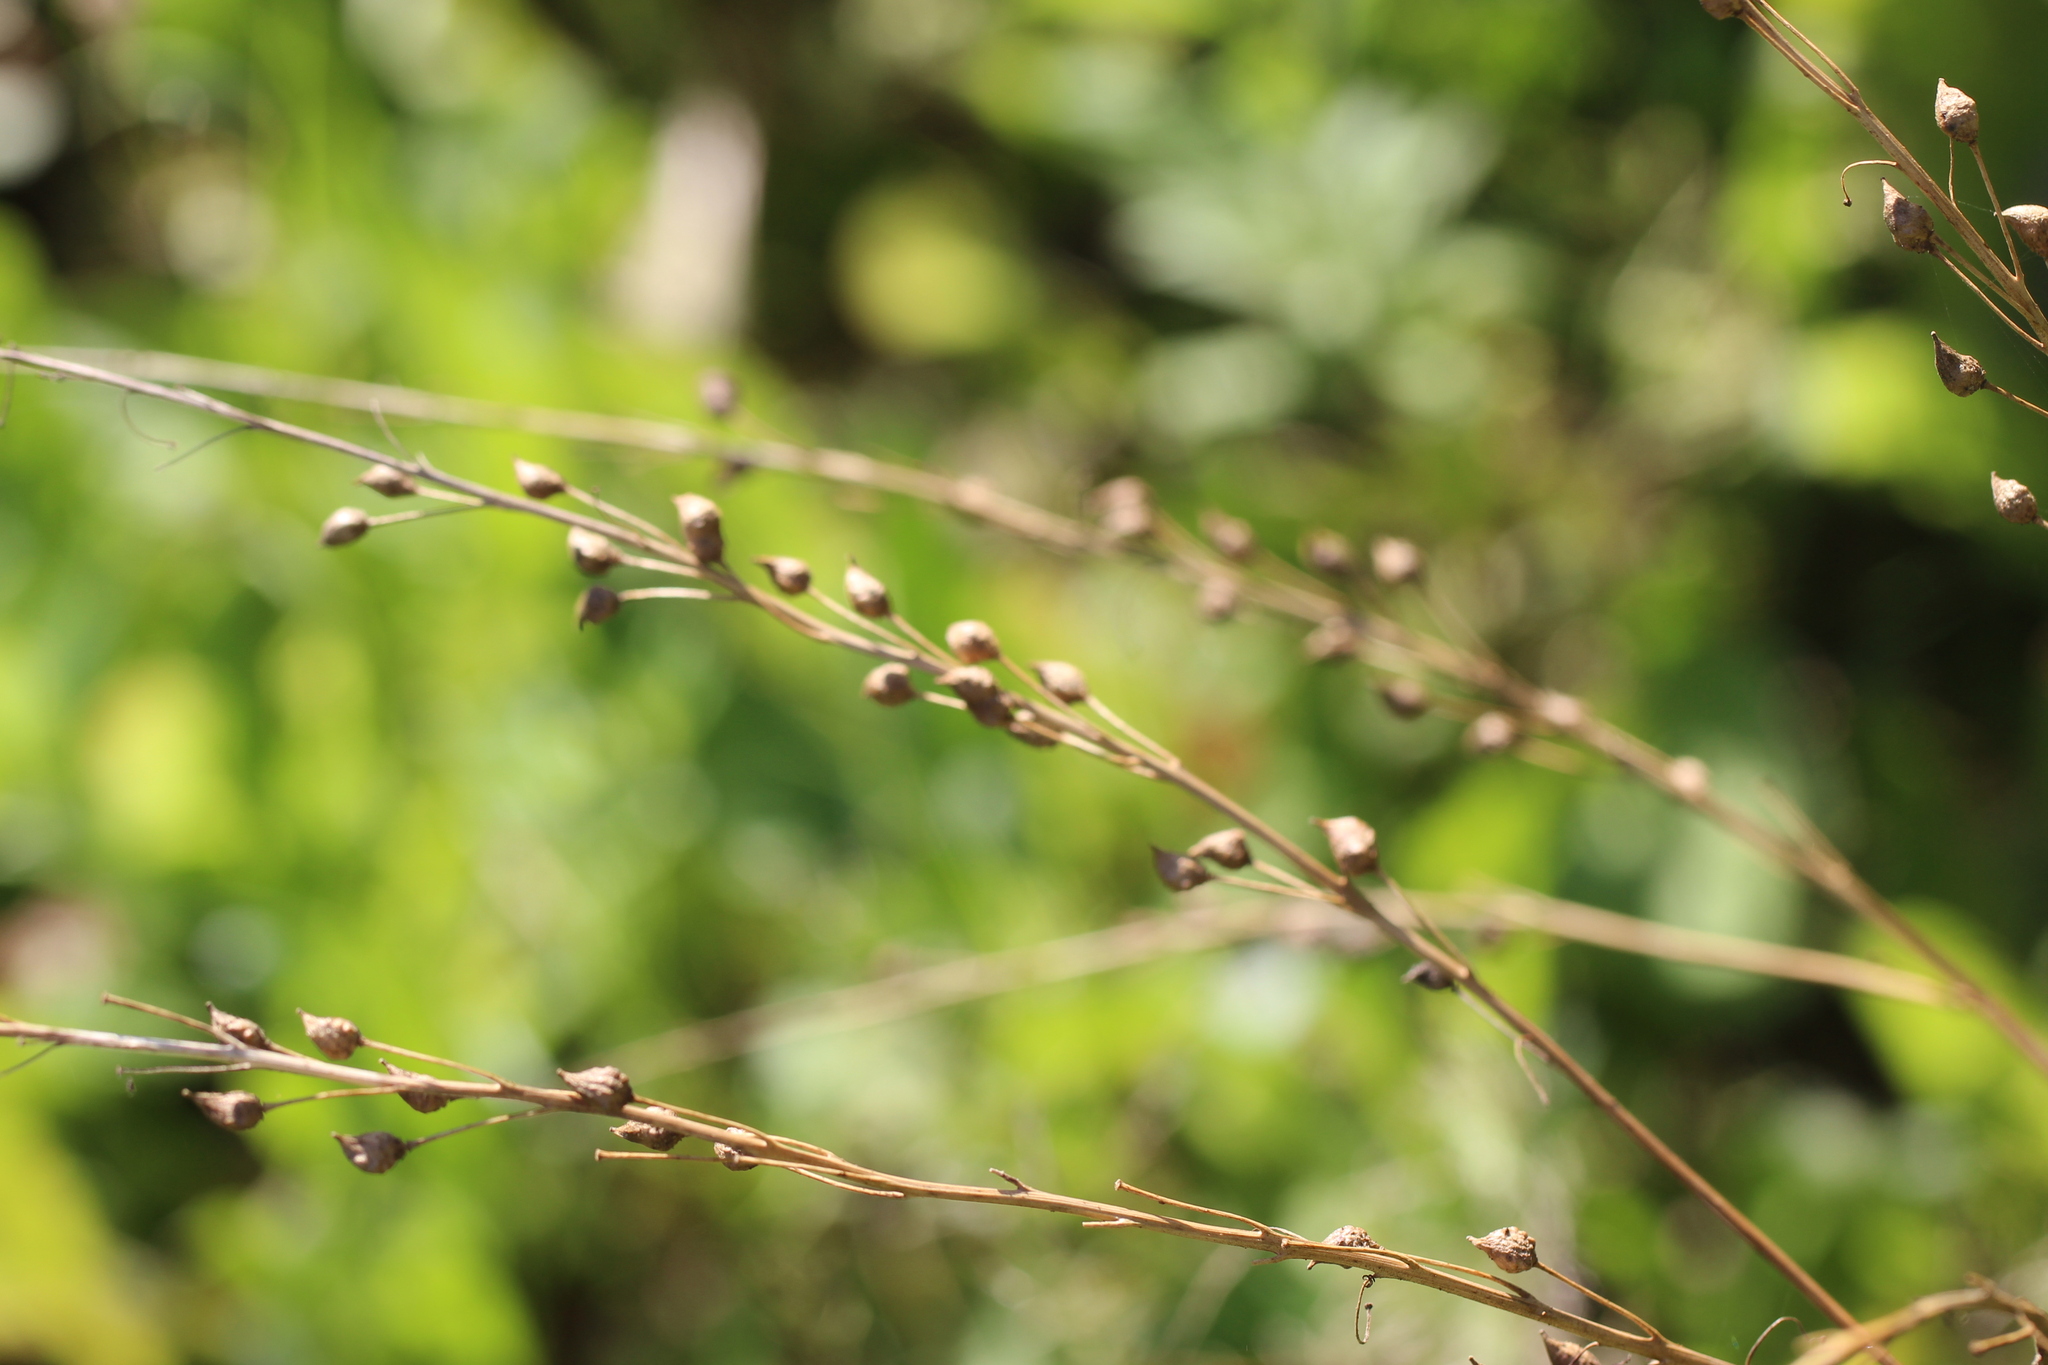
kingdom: Plantae
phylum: Tracheophyta
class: Magnoliopsida
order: Brassicales
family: Brassicaceae
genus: Bunias
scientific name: Bunias orientalis
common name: Warty-cabbage
